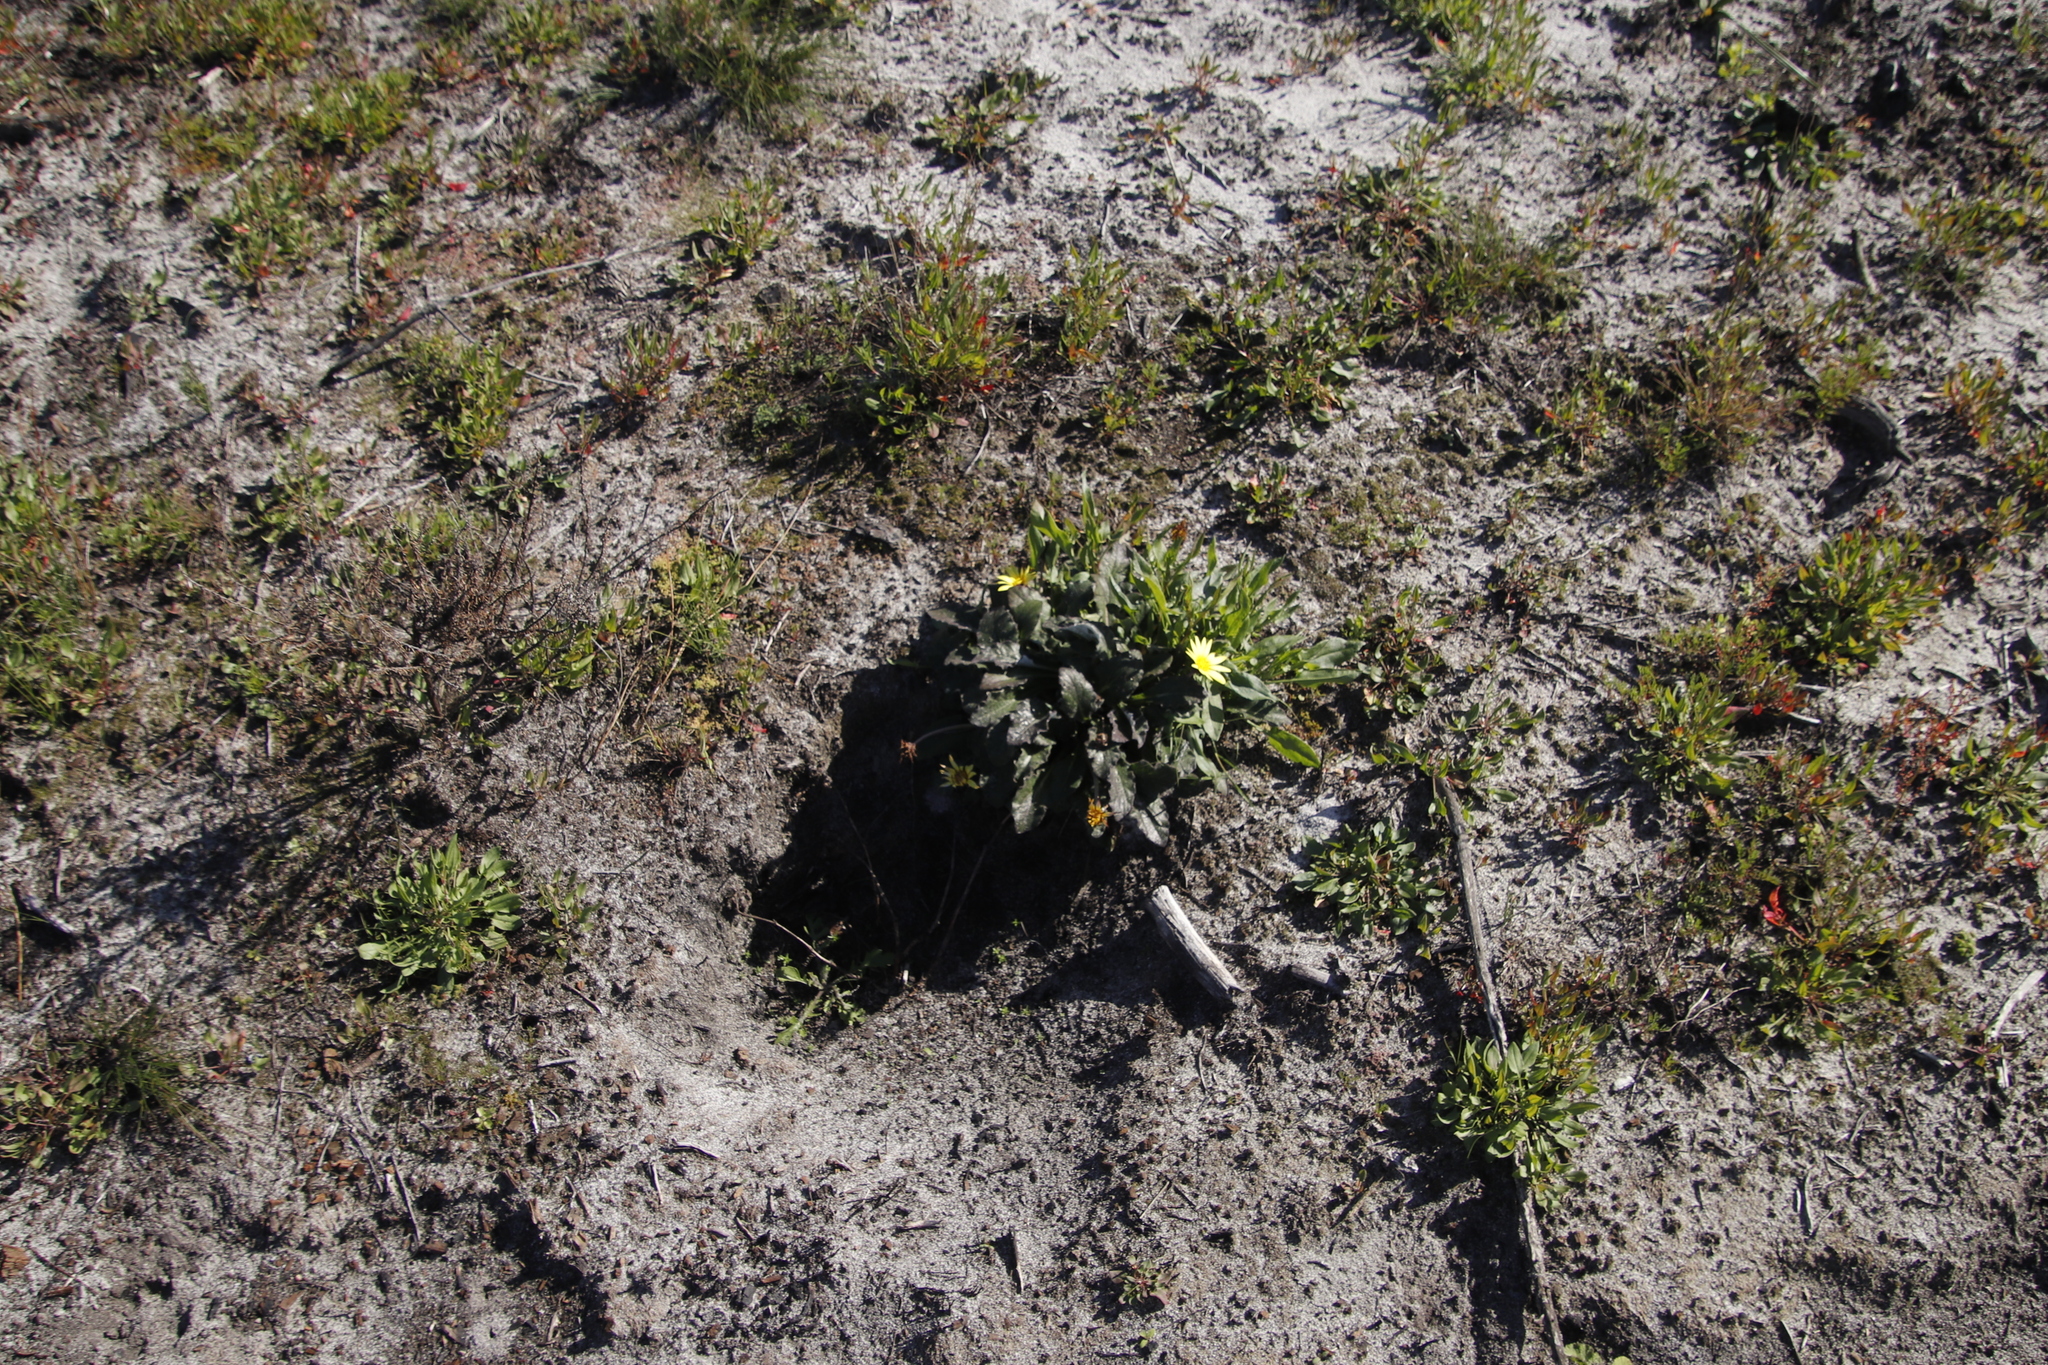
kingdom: Plantae
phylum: Tracheophyta
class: Magnoliopsida
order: Asterales
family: Asteraceae
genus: Haplocarpha
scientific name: Haplocarpha lanata
